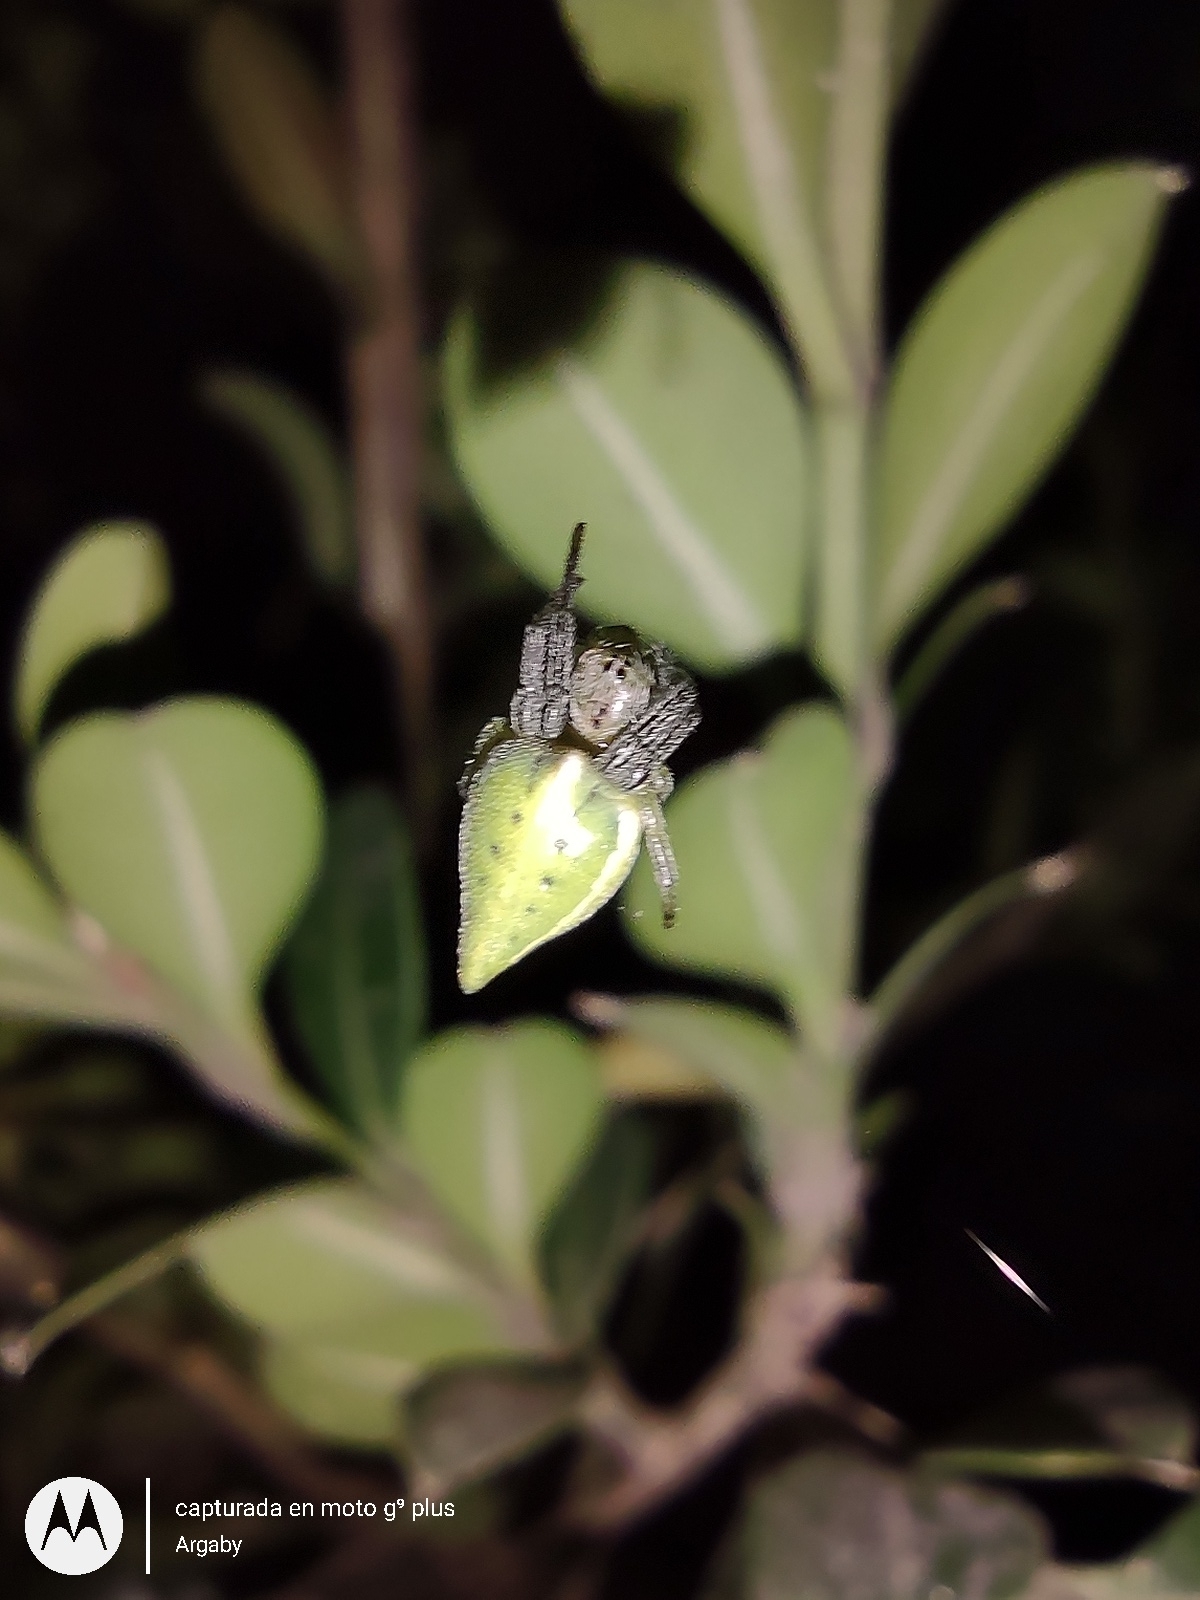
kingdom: Animalia
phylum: Arthropoda
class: Arachnida
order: Araneae
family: Araneidae
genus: Alpaida
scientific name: Alpaida costai
